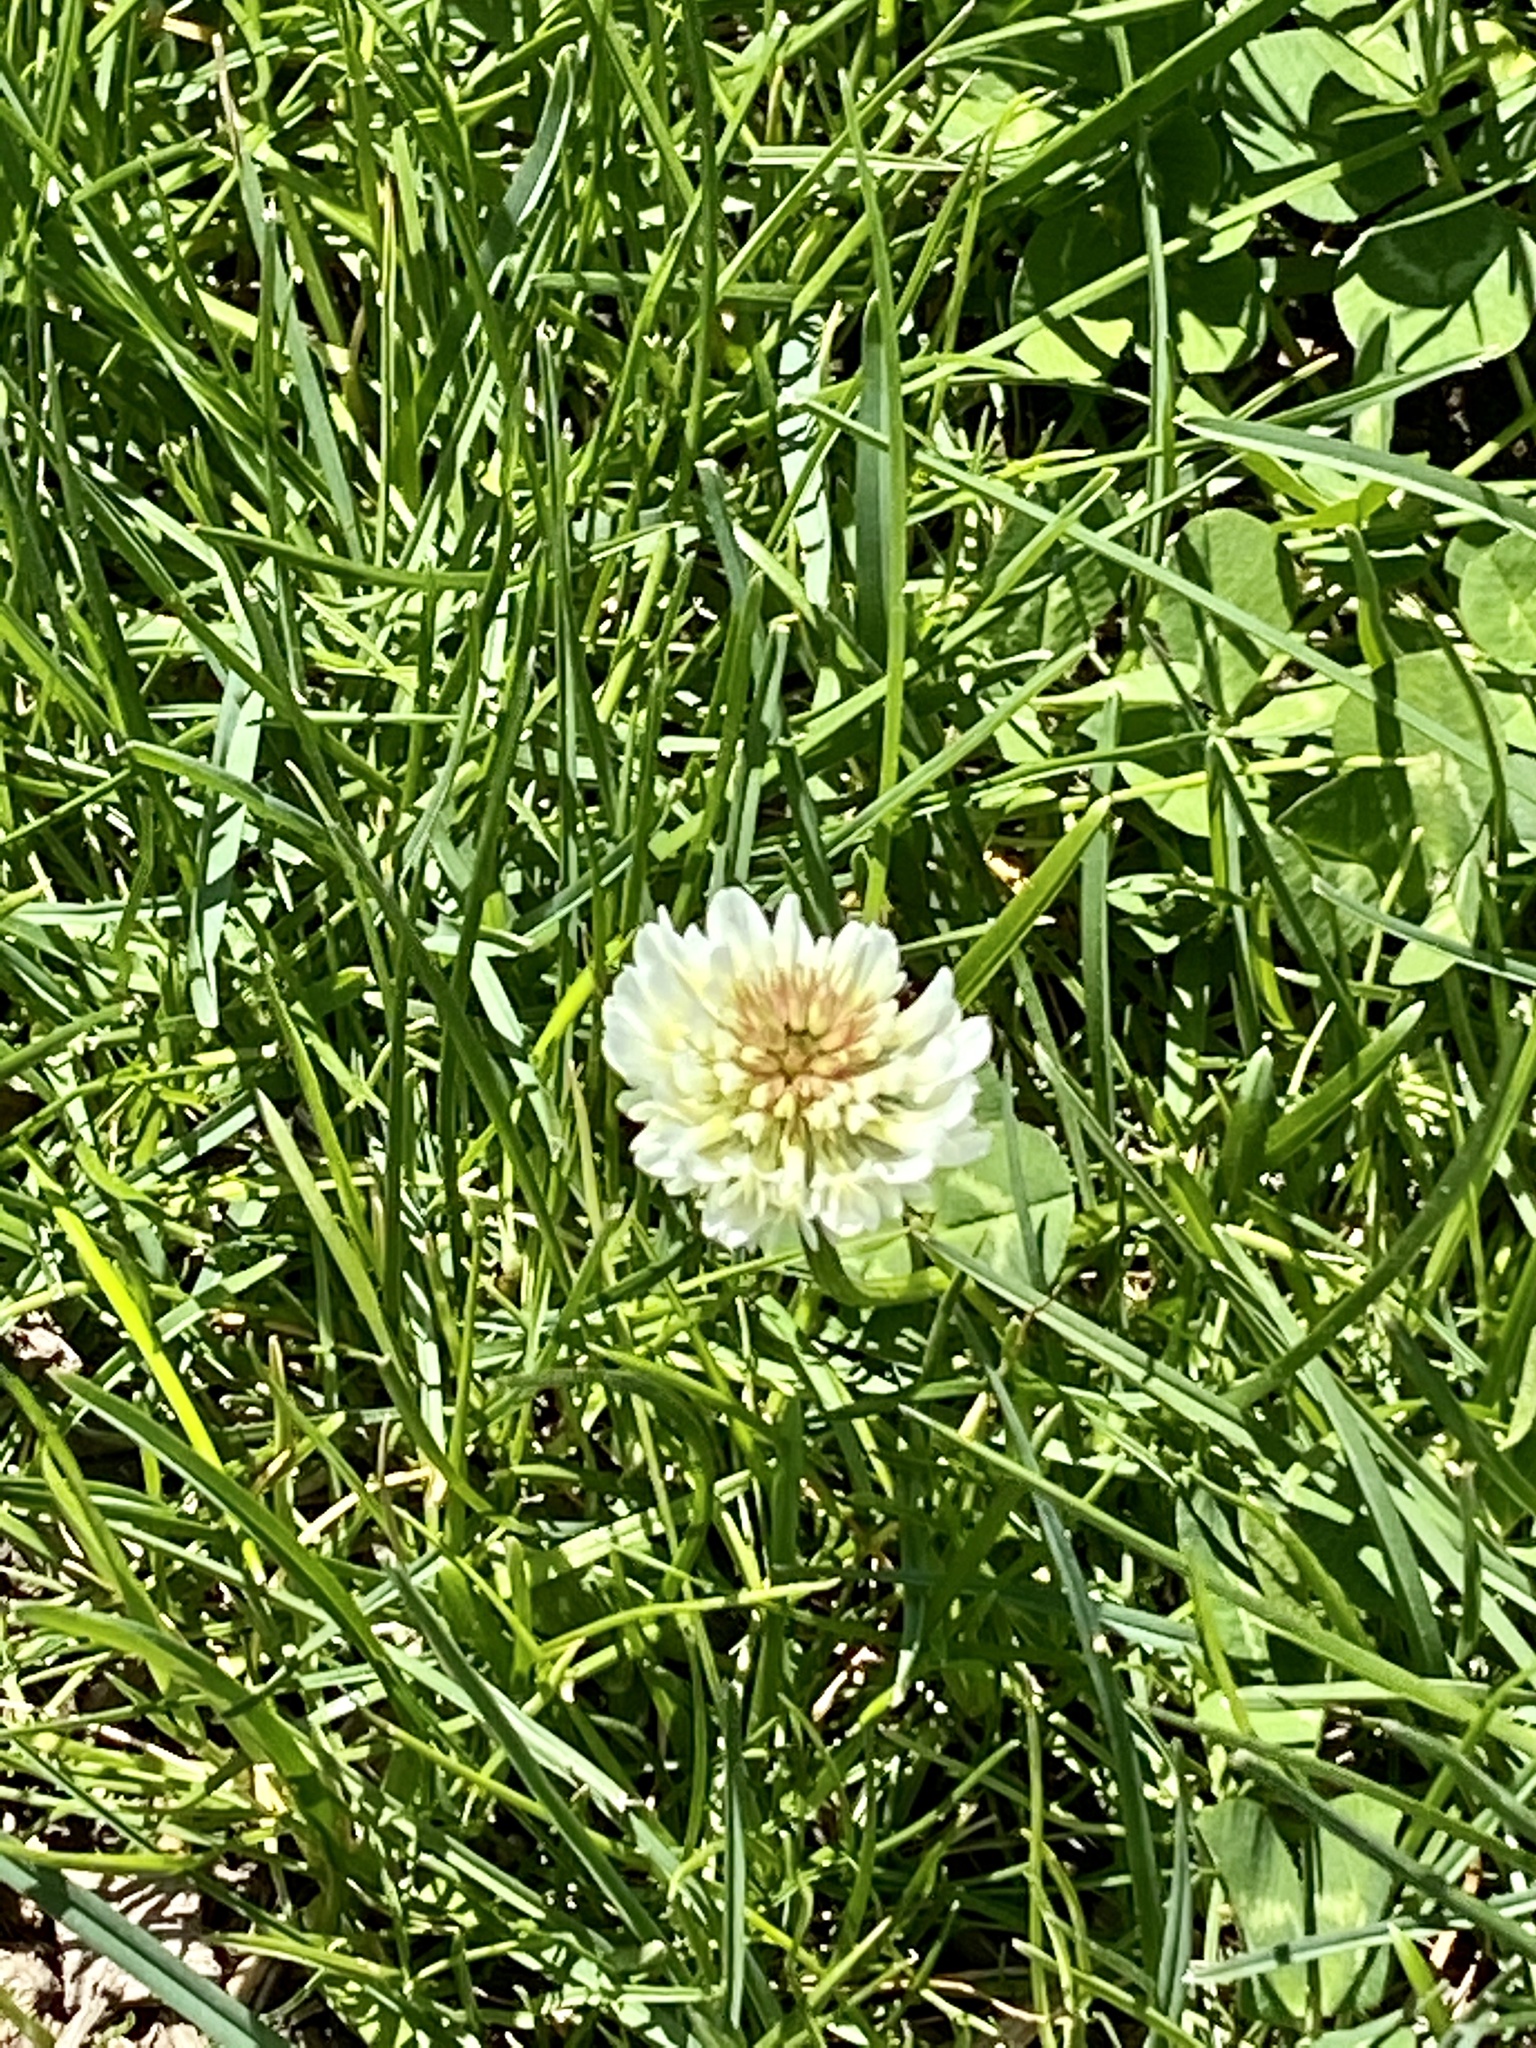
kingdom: Plantae
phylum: Tracheophyta
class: Magnoliopsida
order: Fabales
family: Fabaceae
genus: Trifolium
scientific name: Trifolium repens
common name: White clover
